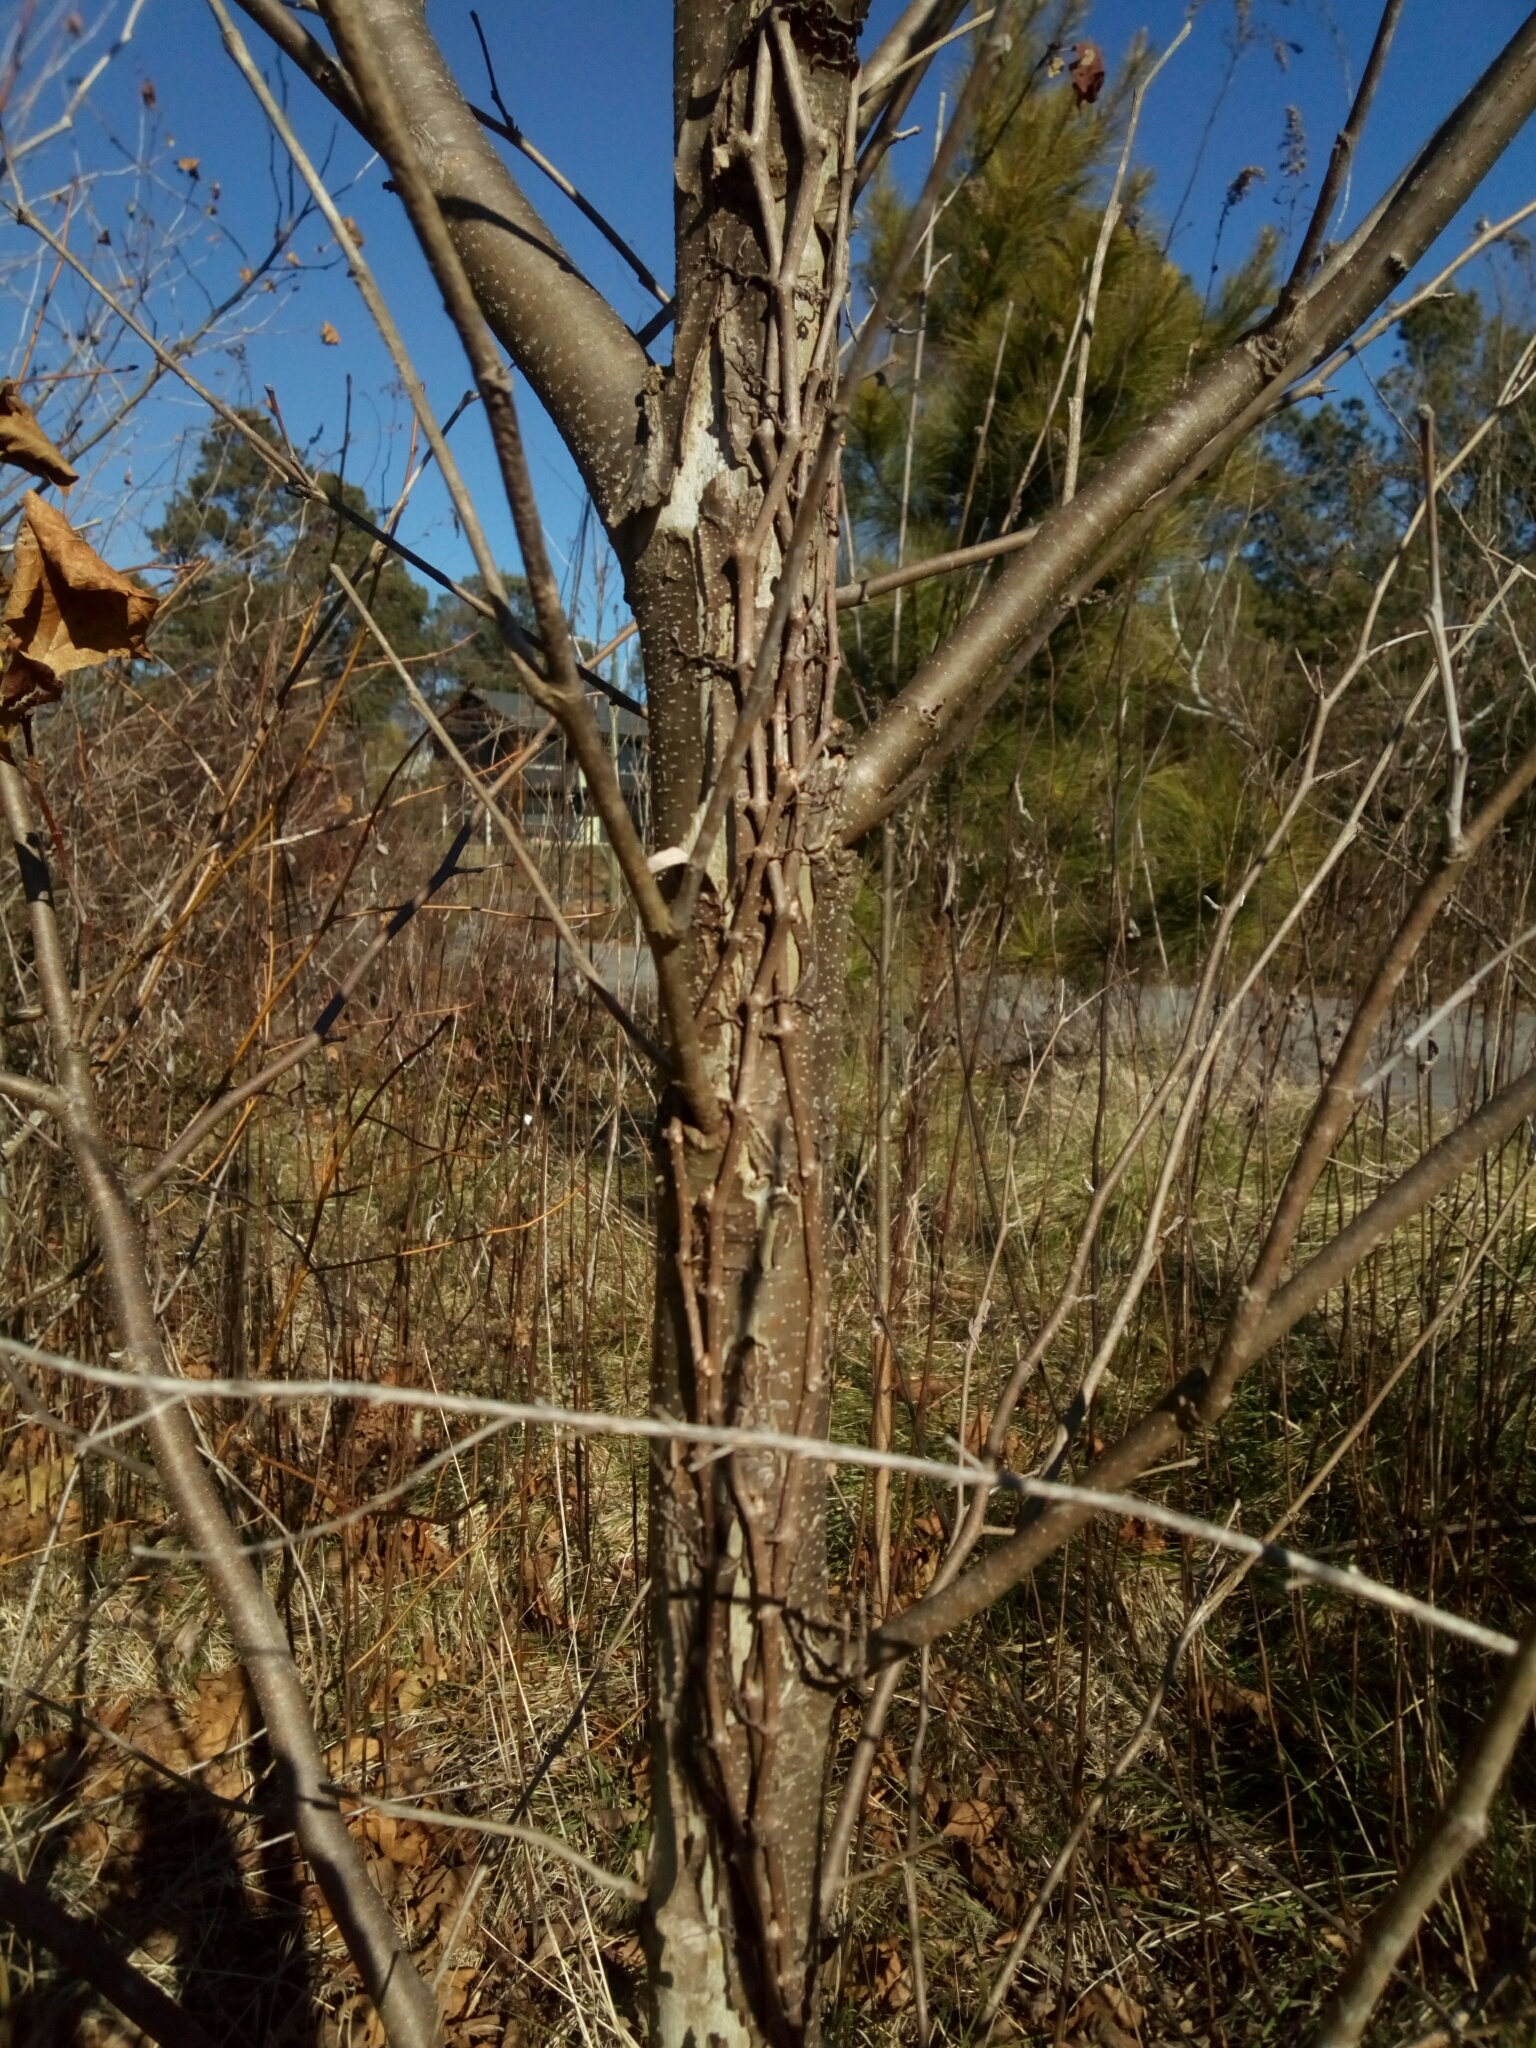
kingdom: Plantae
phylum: Tracheophyta
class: Magnoliopsida
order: Proteales
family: Platanaceae
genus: Platanus
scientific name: Platanus occidentalis
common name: American sycamore
